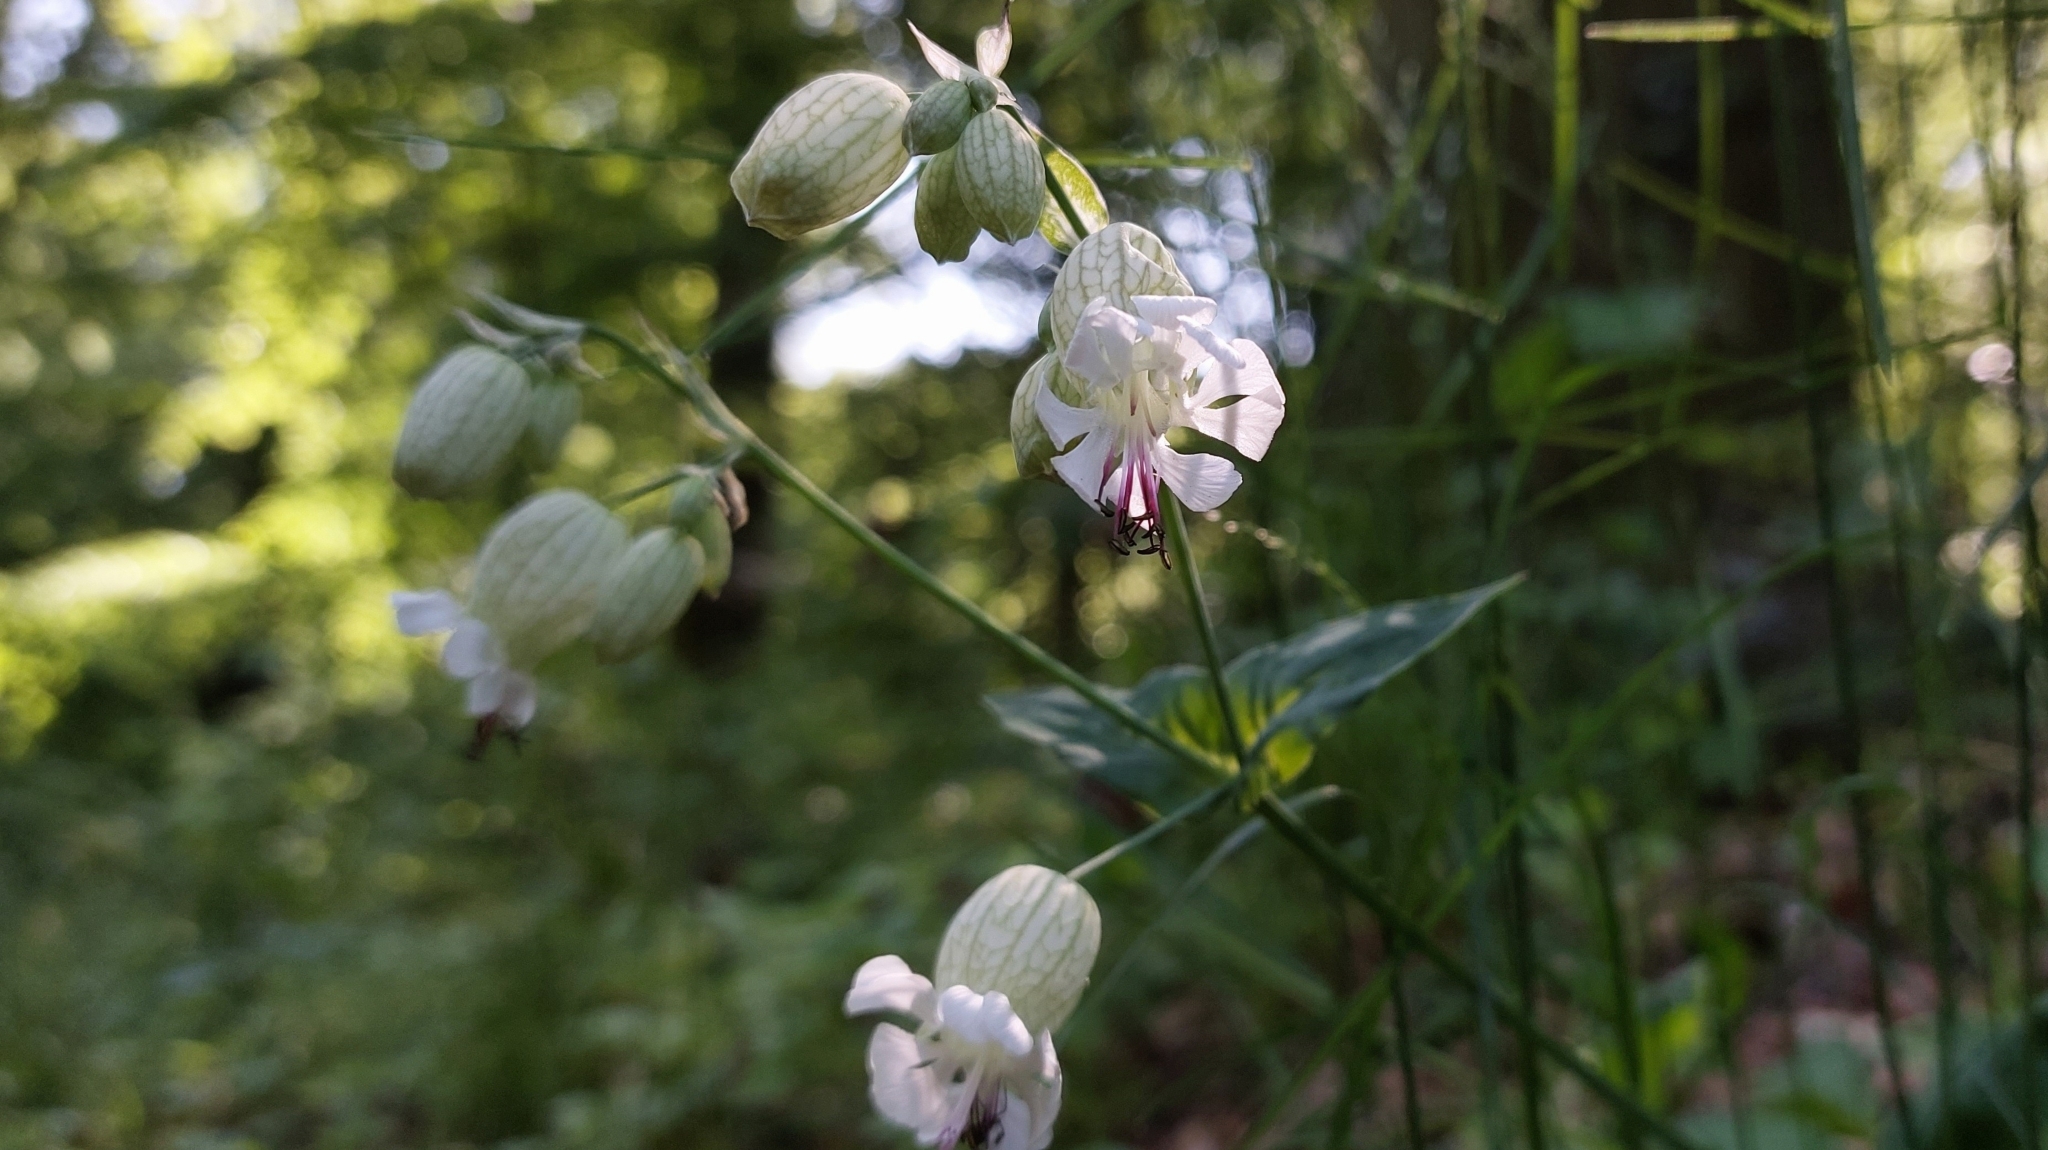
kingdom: Plantae
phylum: Tracheophyta
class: Magnoliopsida
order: Caryophyllales
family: Caryophyllaceae
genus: Silene
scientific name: Silene vulgaris
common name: Bladder campion
